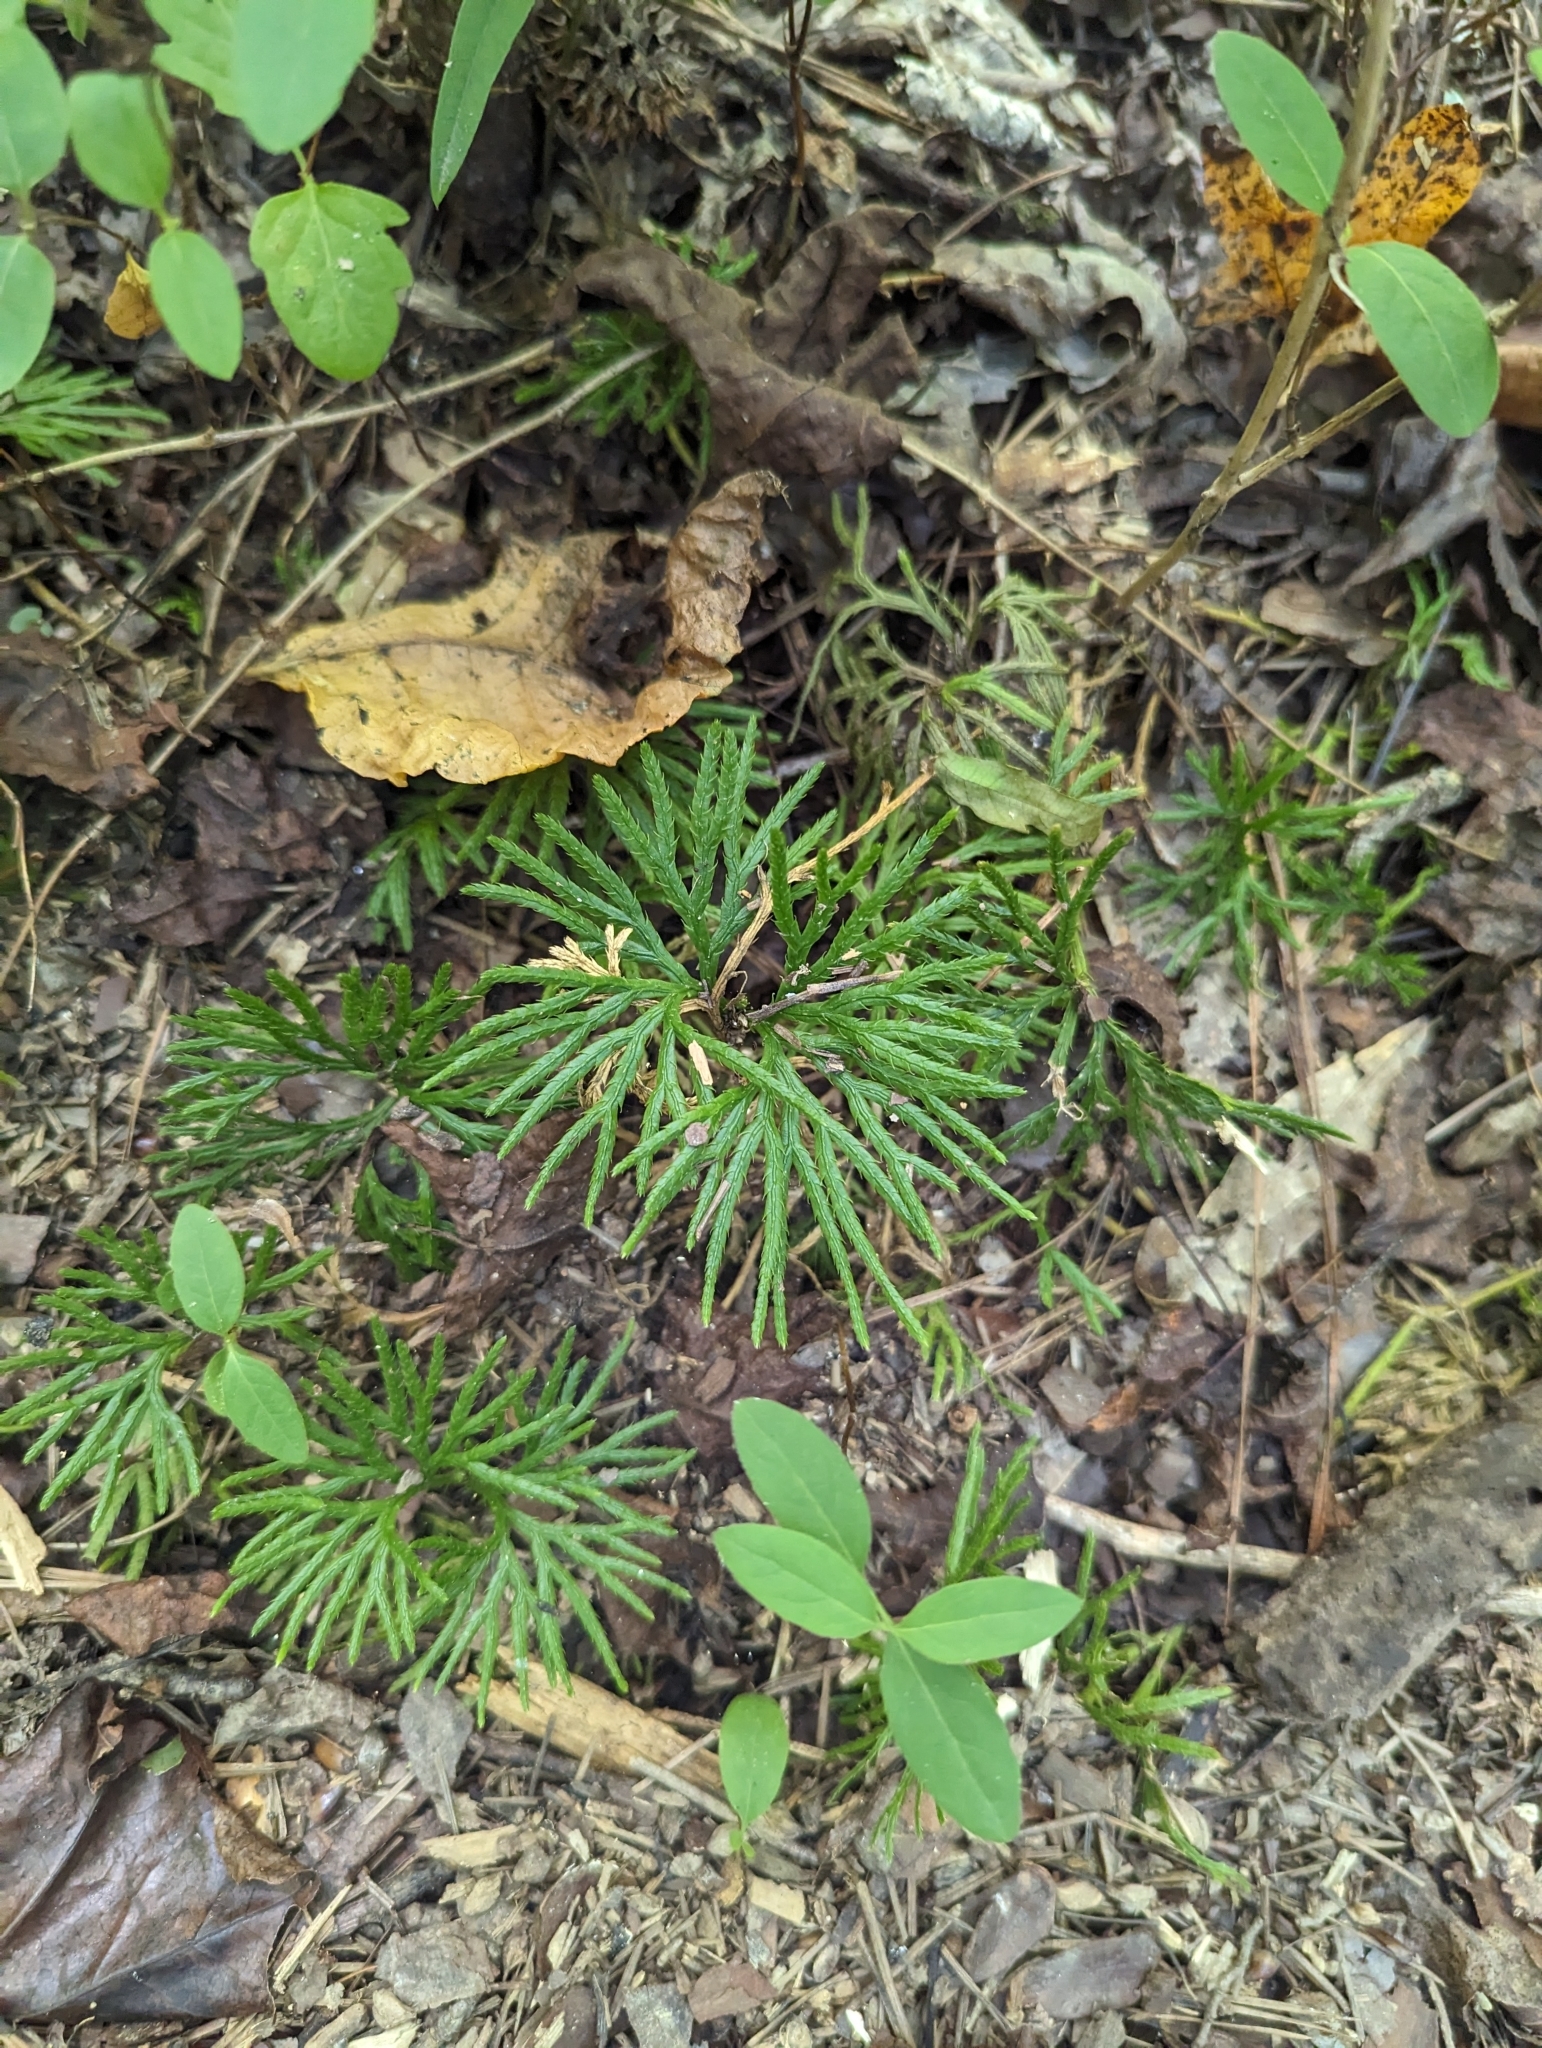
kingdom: Plantae
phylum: Tracheophyta
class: Lycopodiopsida
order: Lycopodiales
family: Lycopodiaceae
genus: Diphasiastrum
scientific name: Diphasiastrum digitatum
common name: Southern running-pine
